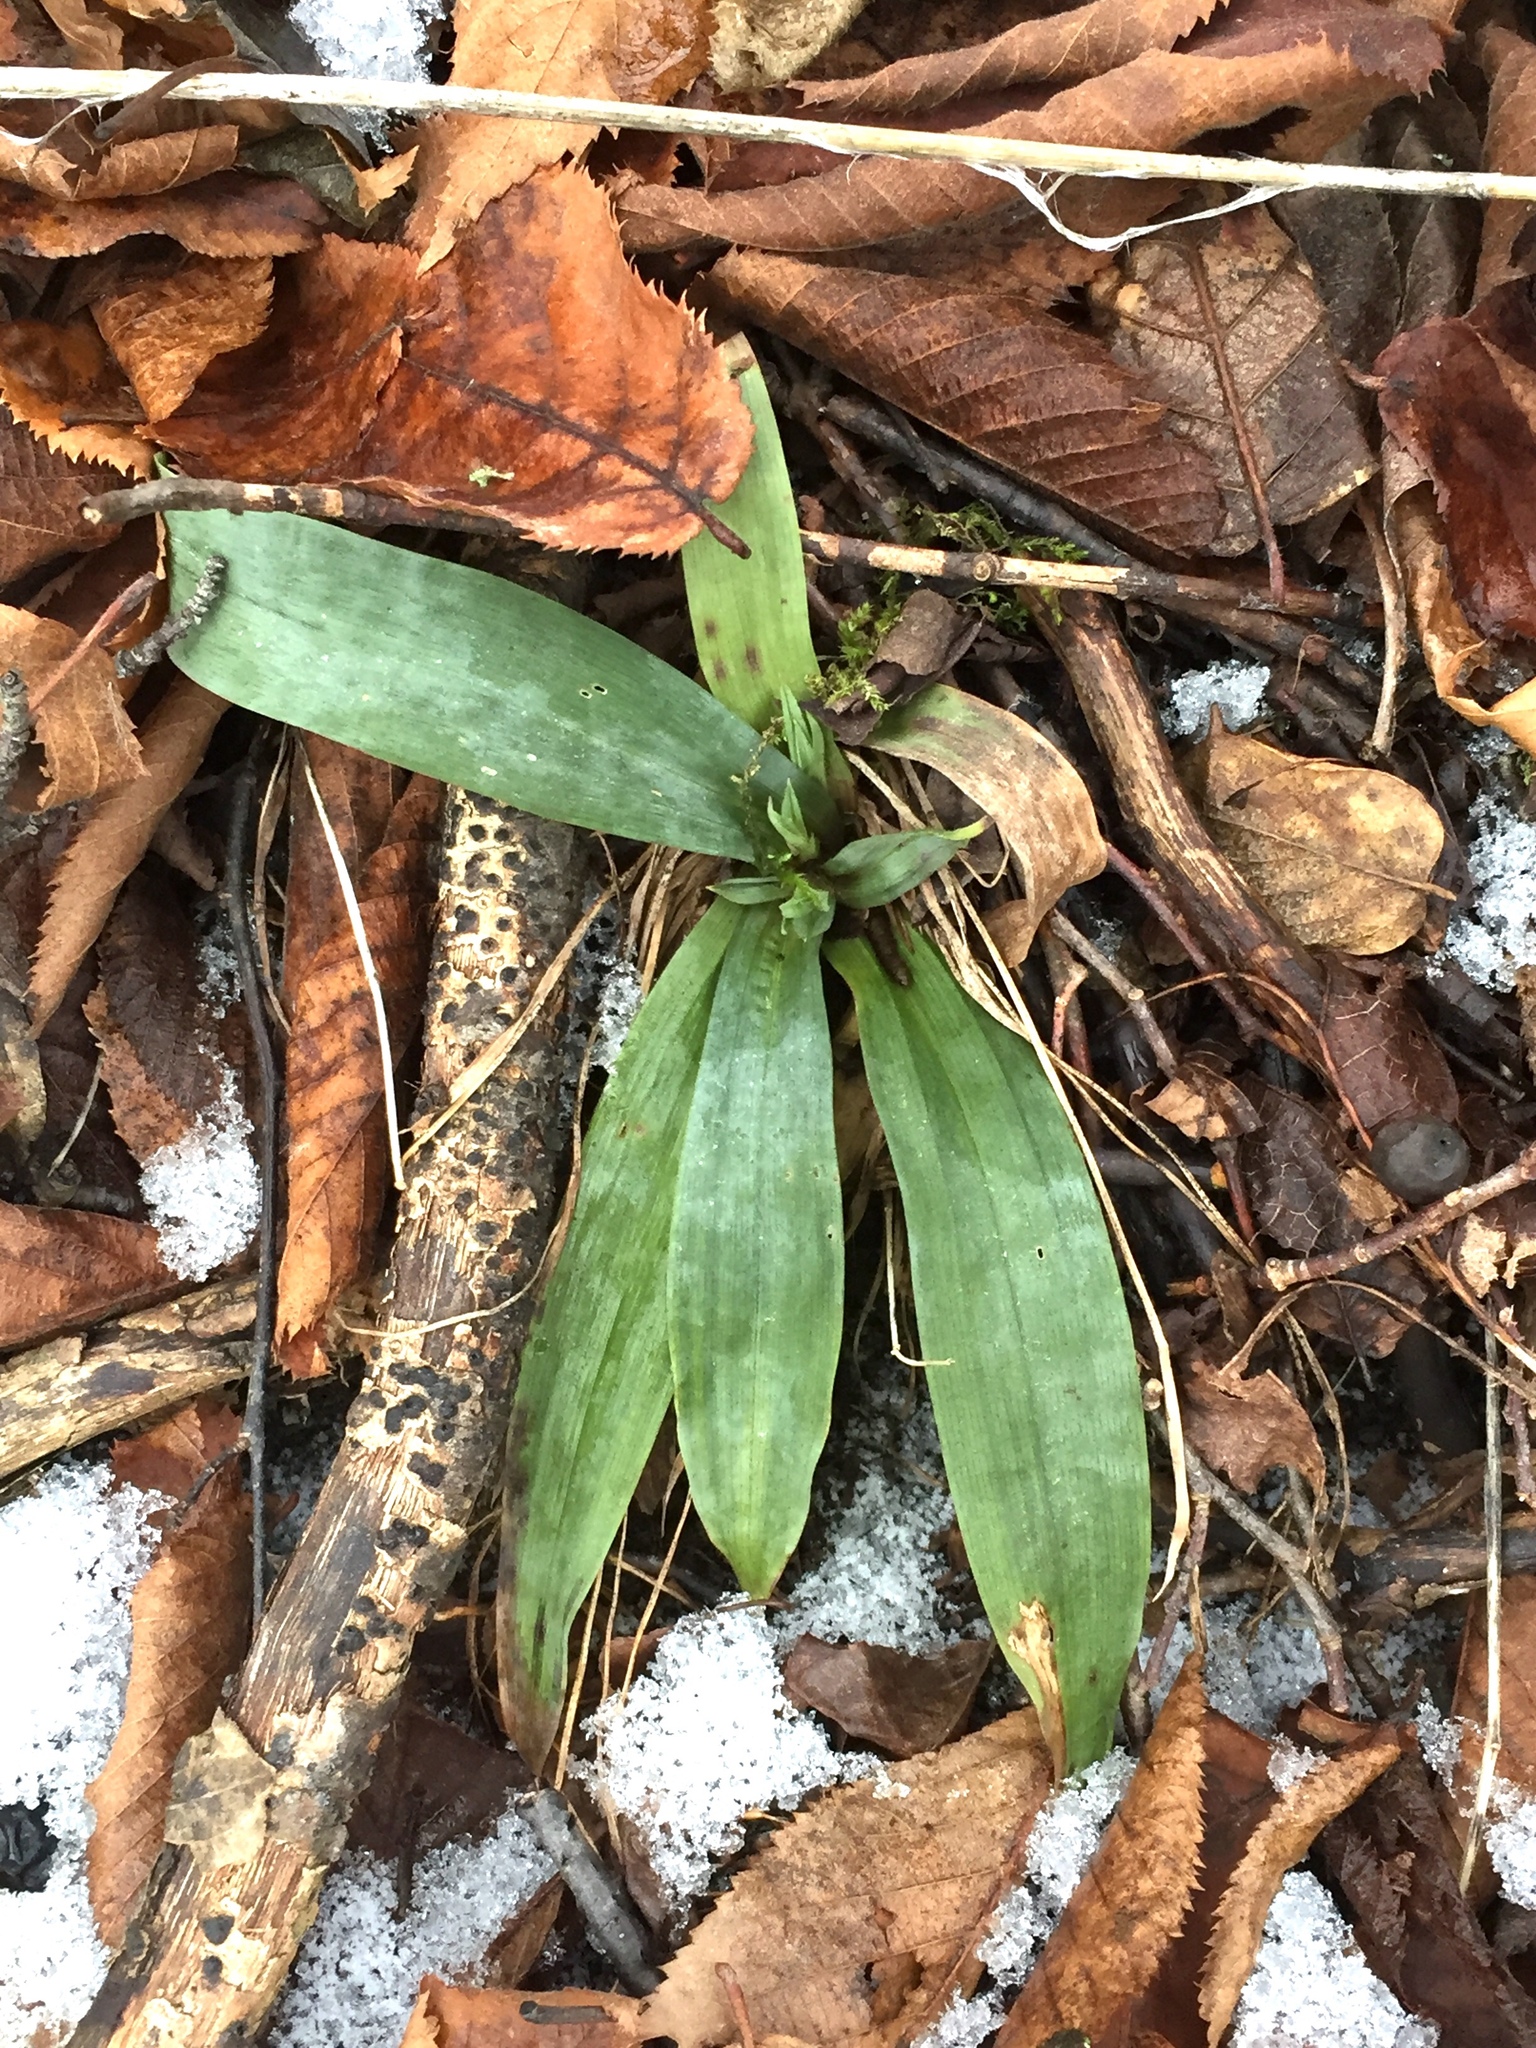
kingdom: Plantae
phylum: Tracheophyta
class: Liliopsida
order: Poales
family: Cyperaceae
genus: Carex
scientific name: Carex platyphylla
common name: Broad-leaved sedge
